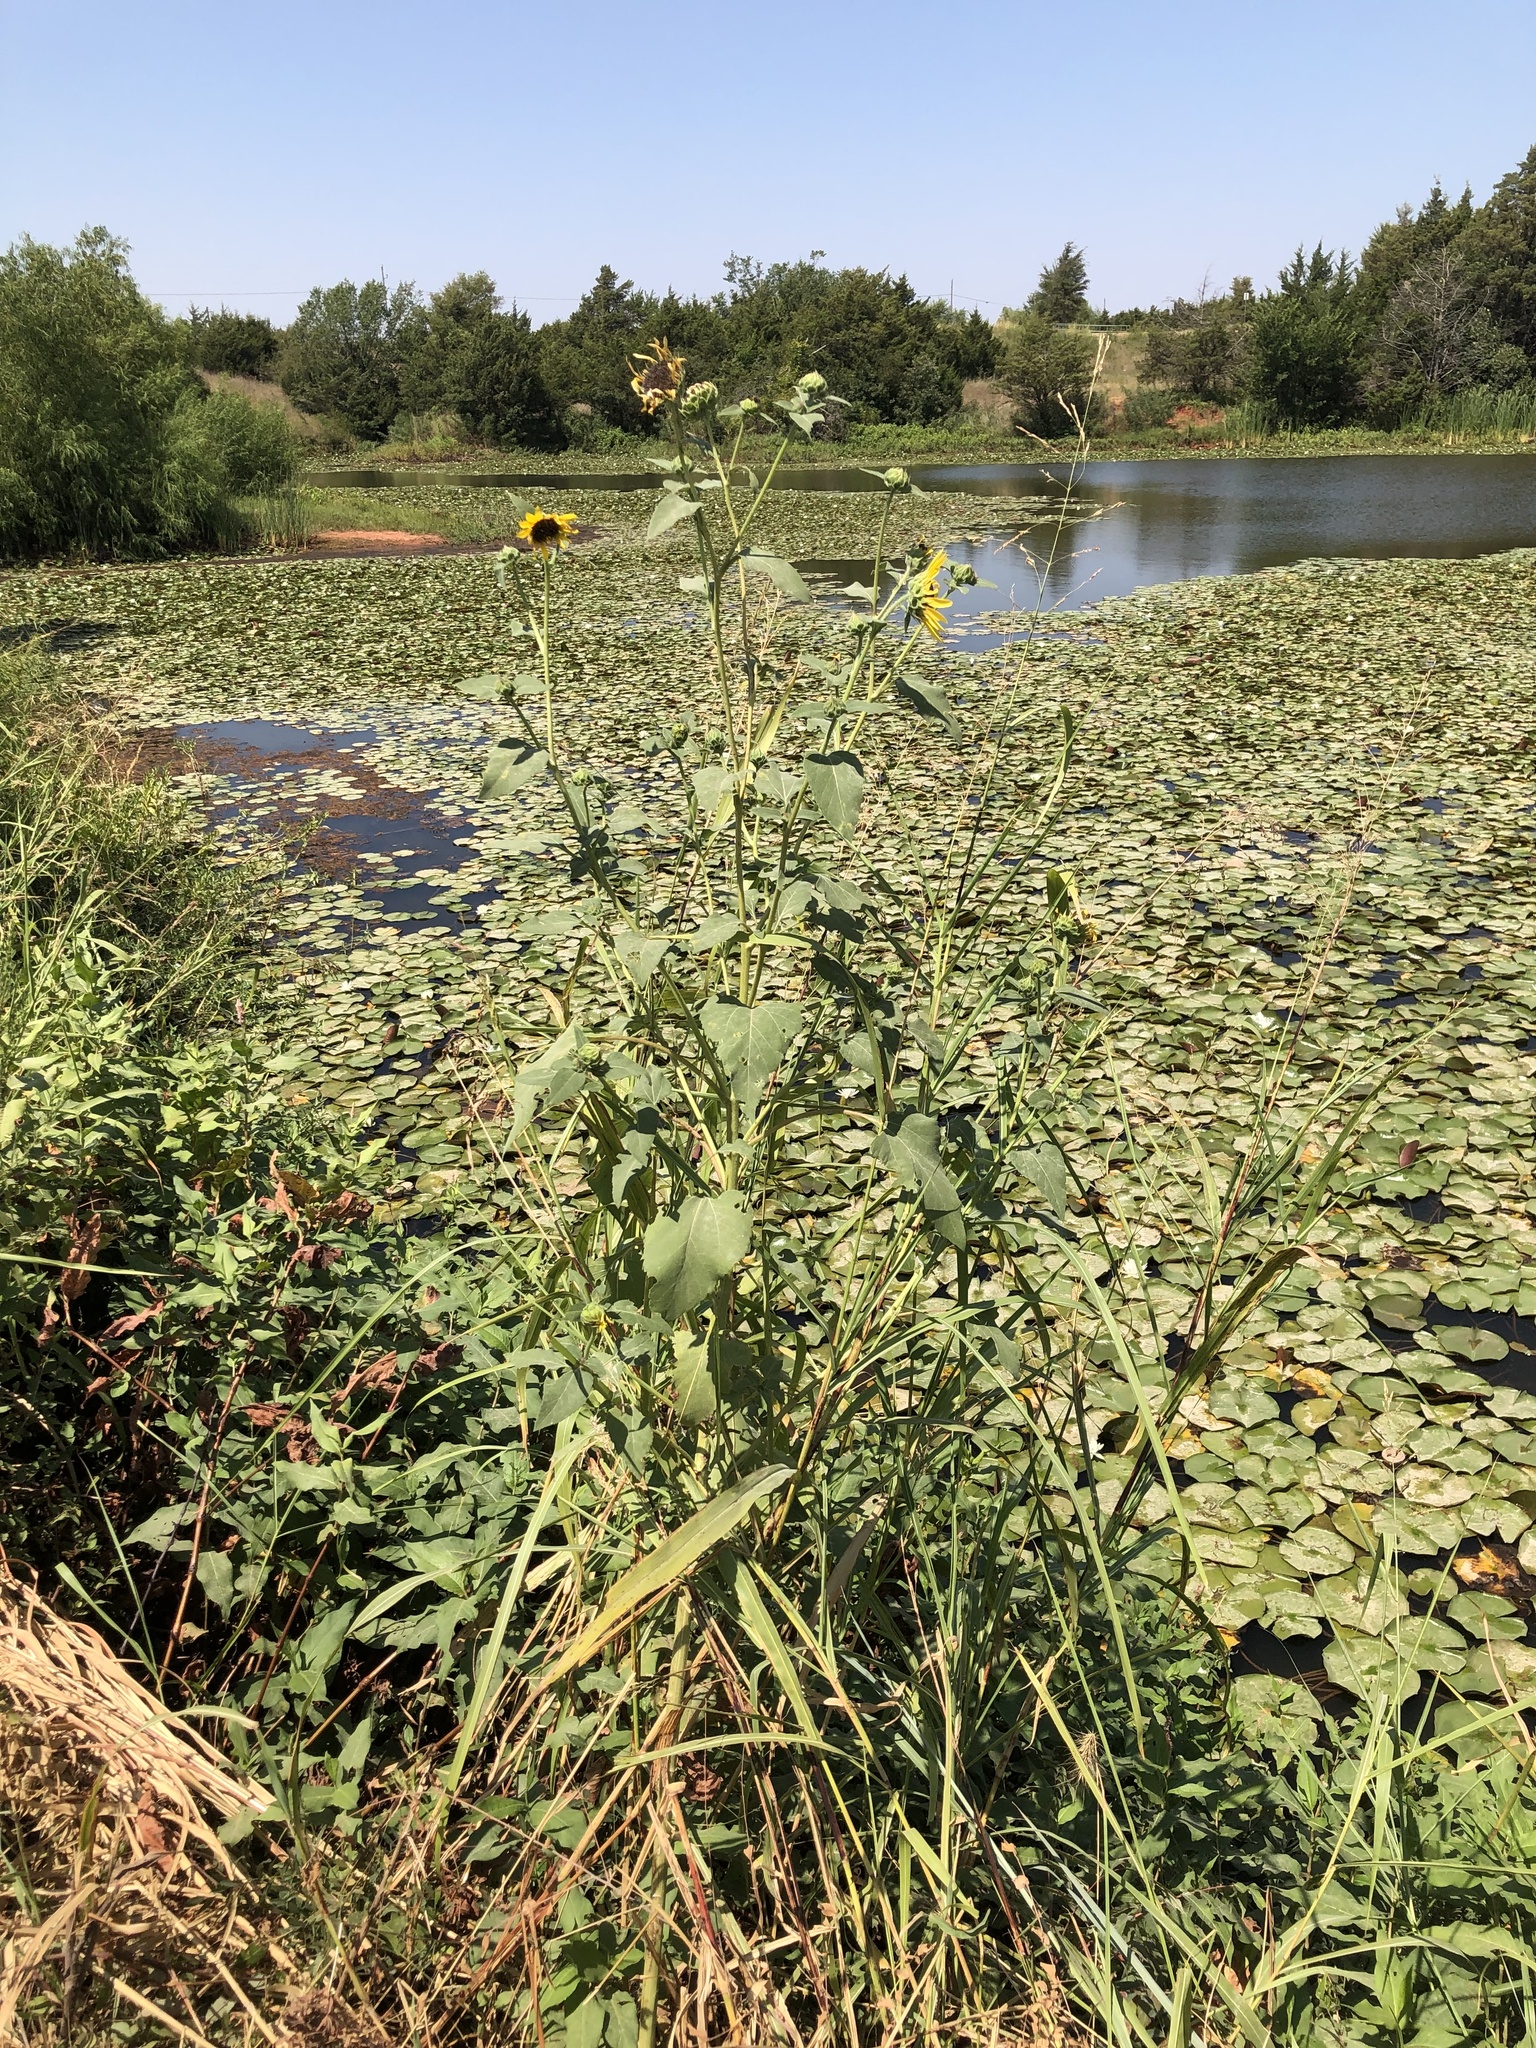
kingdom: Plantae
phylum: Tracheophyta
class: Magnoliopsida
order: Asterales
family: Asteraceae
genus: Helianthus
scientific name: Helianthus annuus
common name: Sunflower
